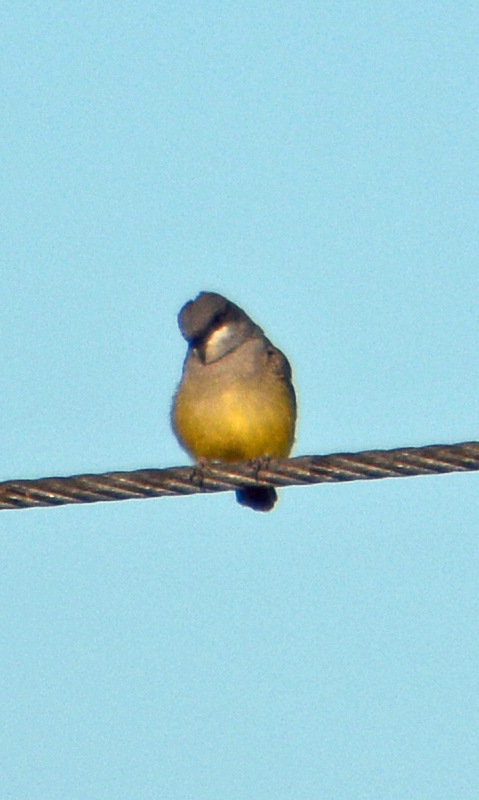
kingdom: Animalia
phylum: Chordata
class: Aves
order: Passeriformes
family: Tyrannidae
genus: Tyrannus
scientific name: Tyrannus vociferans
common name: Cassin's kingbird
